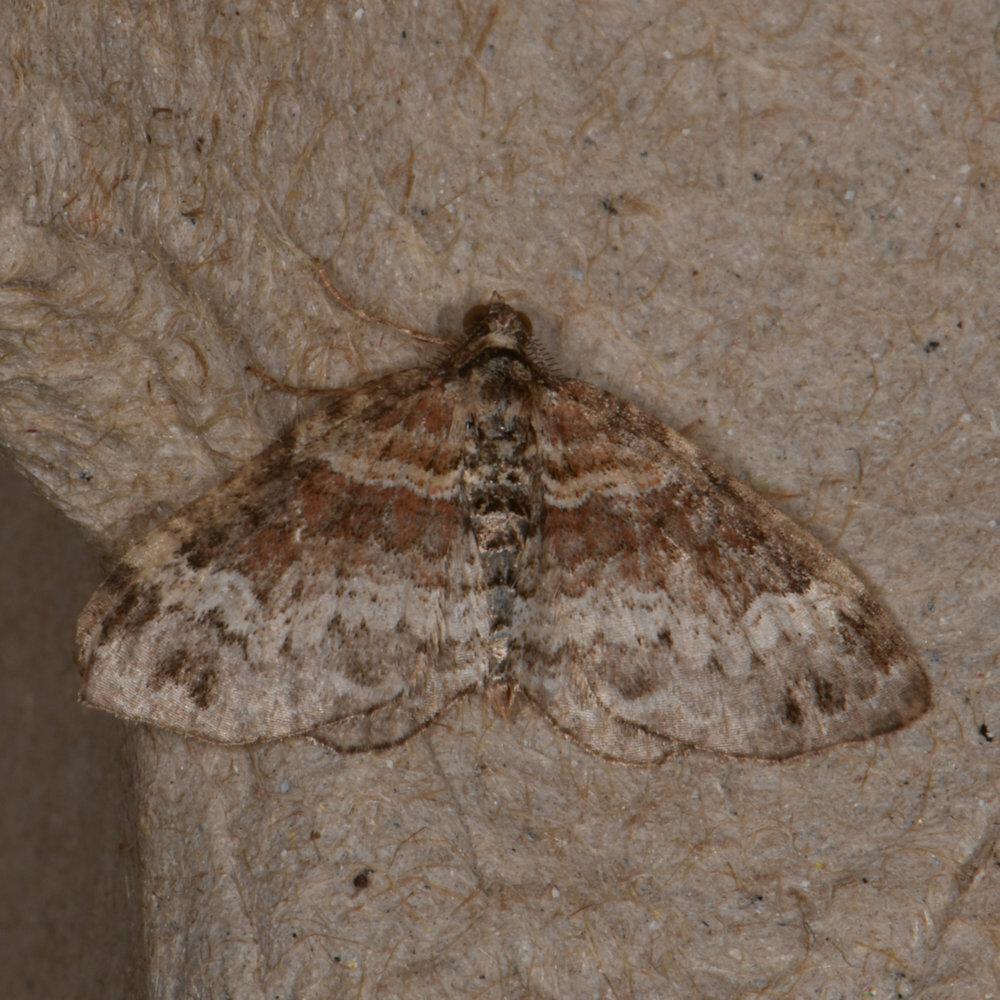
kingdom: Animalia
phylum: Arthropoda
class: Insecta
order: Lepidoptera
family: Geometridae
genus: Xanthorhoe
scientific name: Xanthorhoe ferrugata
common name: Dark-barred twin-spot carpet
